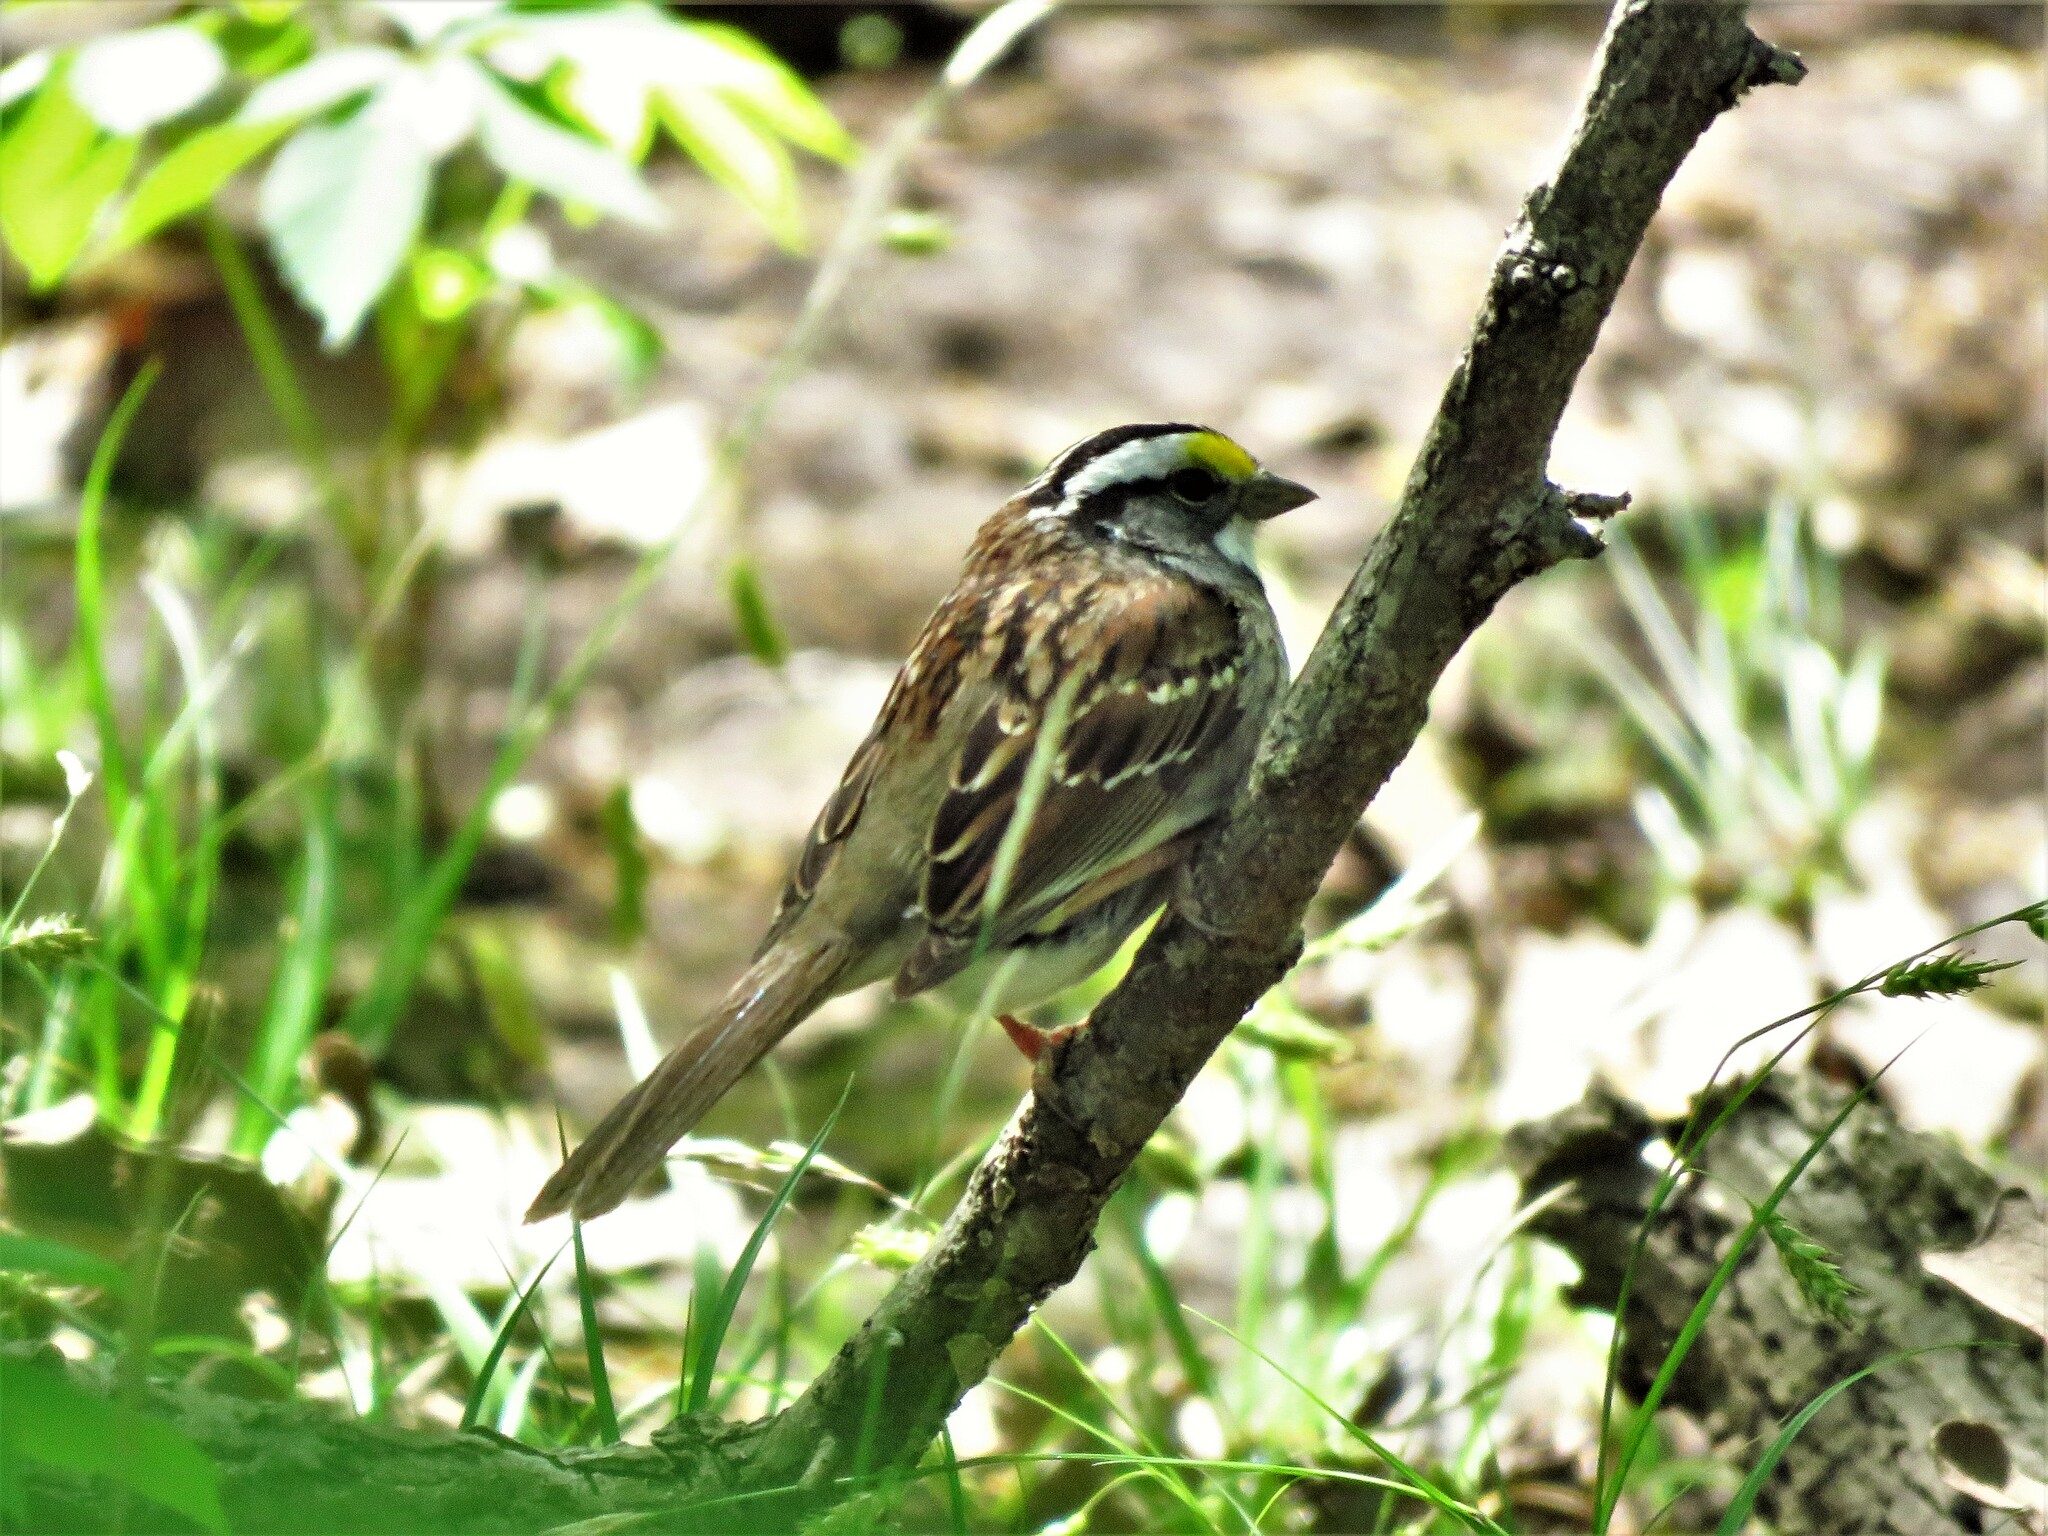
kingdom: Animalia
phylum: Chordata
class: Aves
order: Passeriformes
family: Passerellidae
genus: Zonotrichia
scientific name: Zonotrichia albicollis
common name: White-throated sparrow
